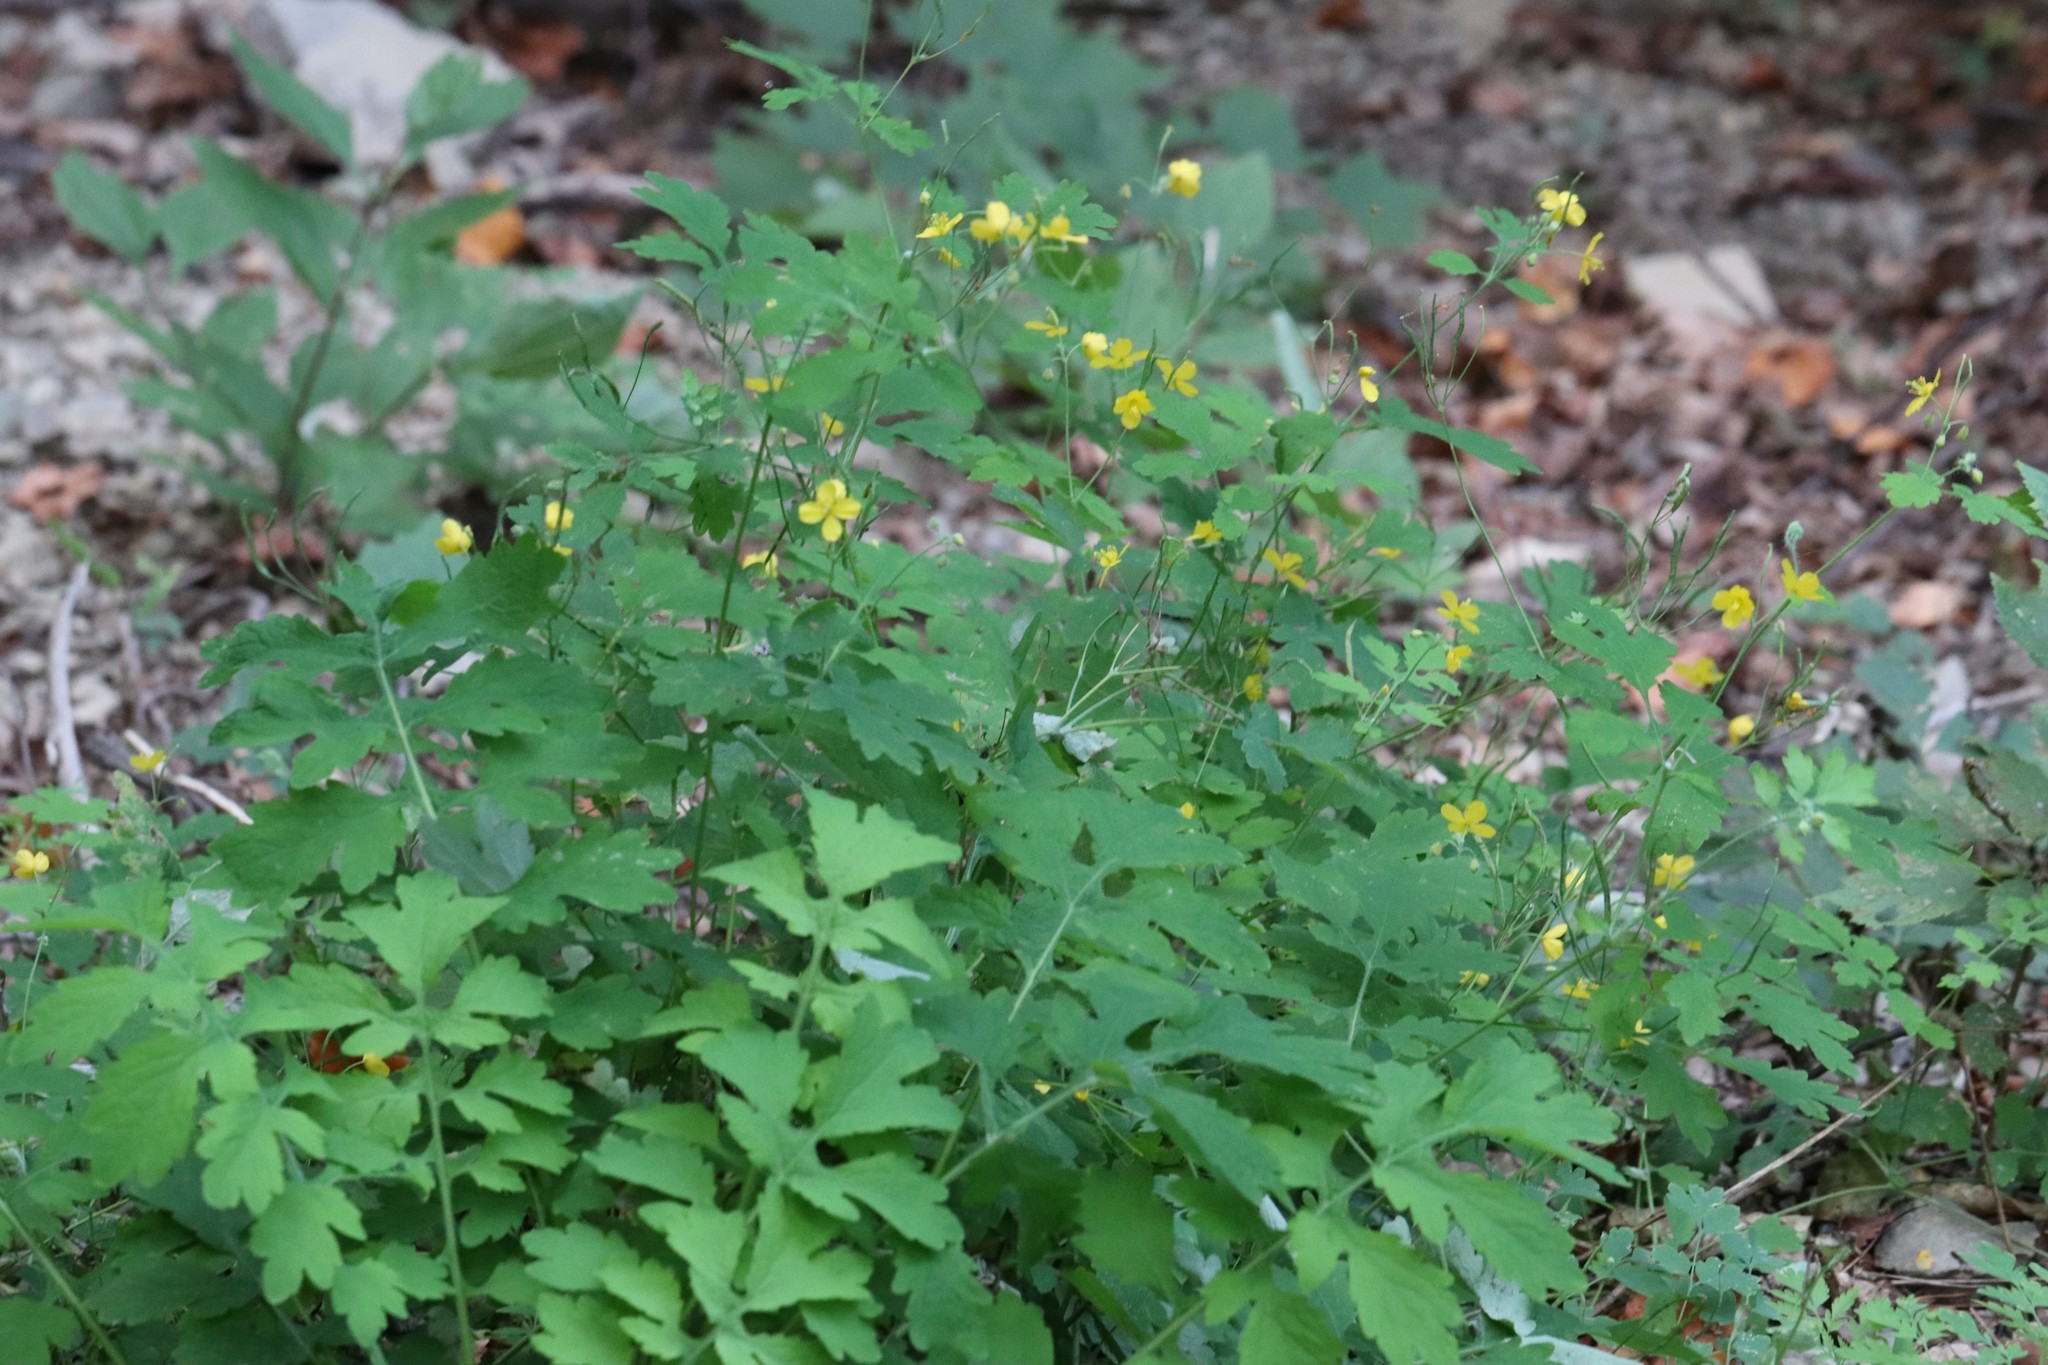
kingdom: Plantae
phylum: Tracheophyta
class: Magnoliopsida
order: Ranunculales
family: Papaveraceae
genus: Chelidonium
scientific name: Chelidonium majus
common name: Greater celandine
